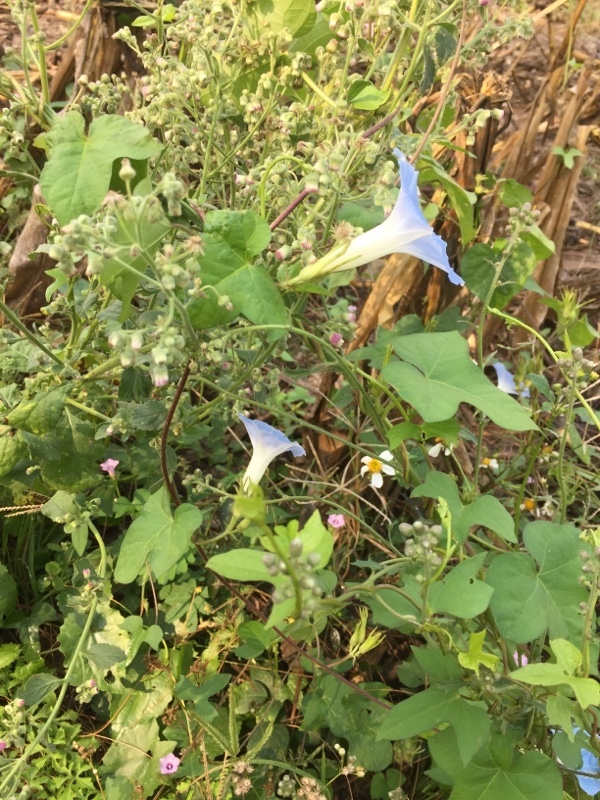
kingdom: Plantae
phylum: Tracheophyta
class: Magnoliopsida
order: Solanales
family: Convolvulaceae
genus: Ipomoea
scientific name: Ipomoea nil
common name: Japanese morning-glory
